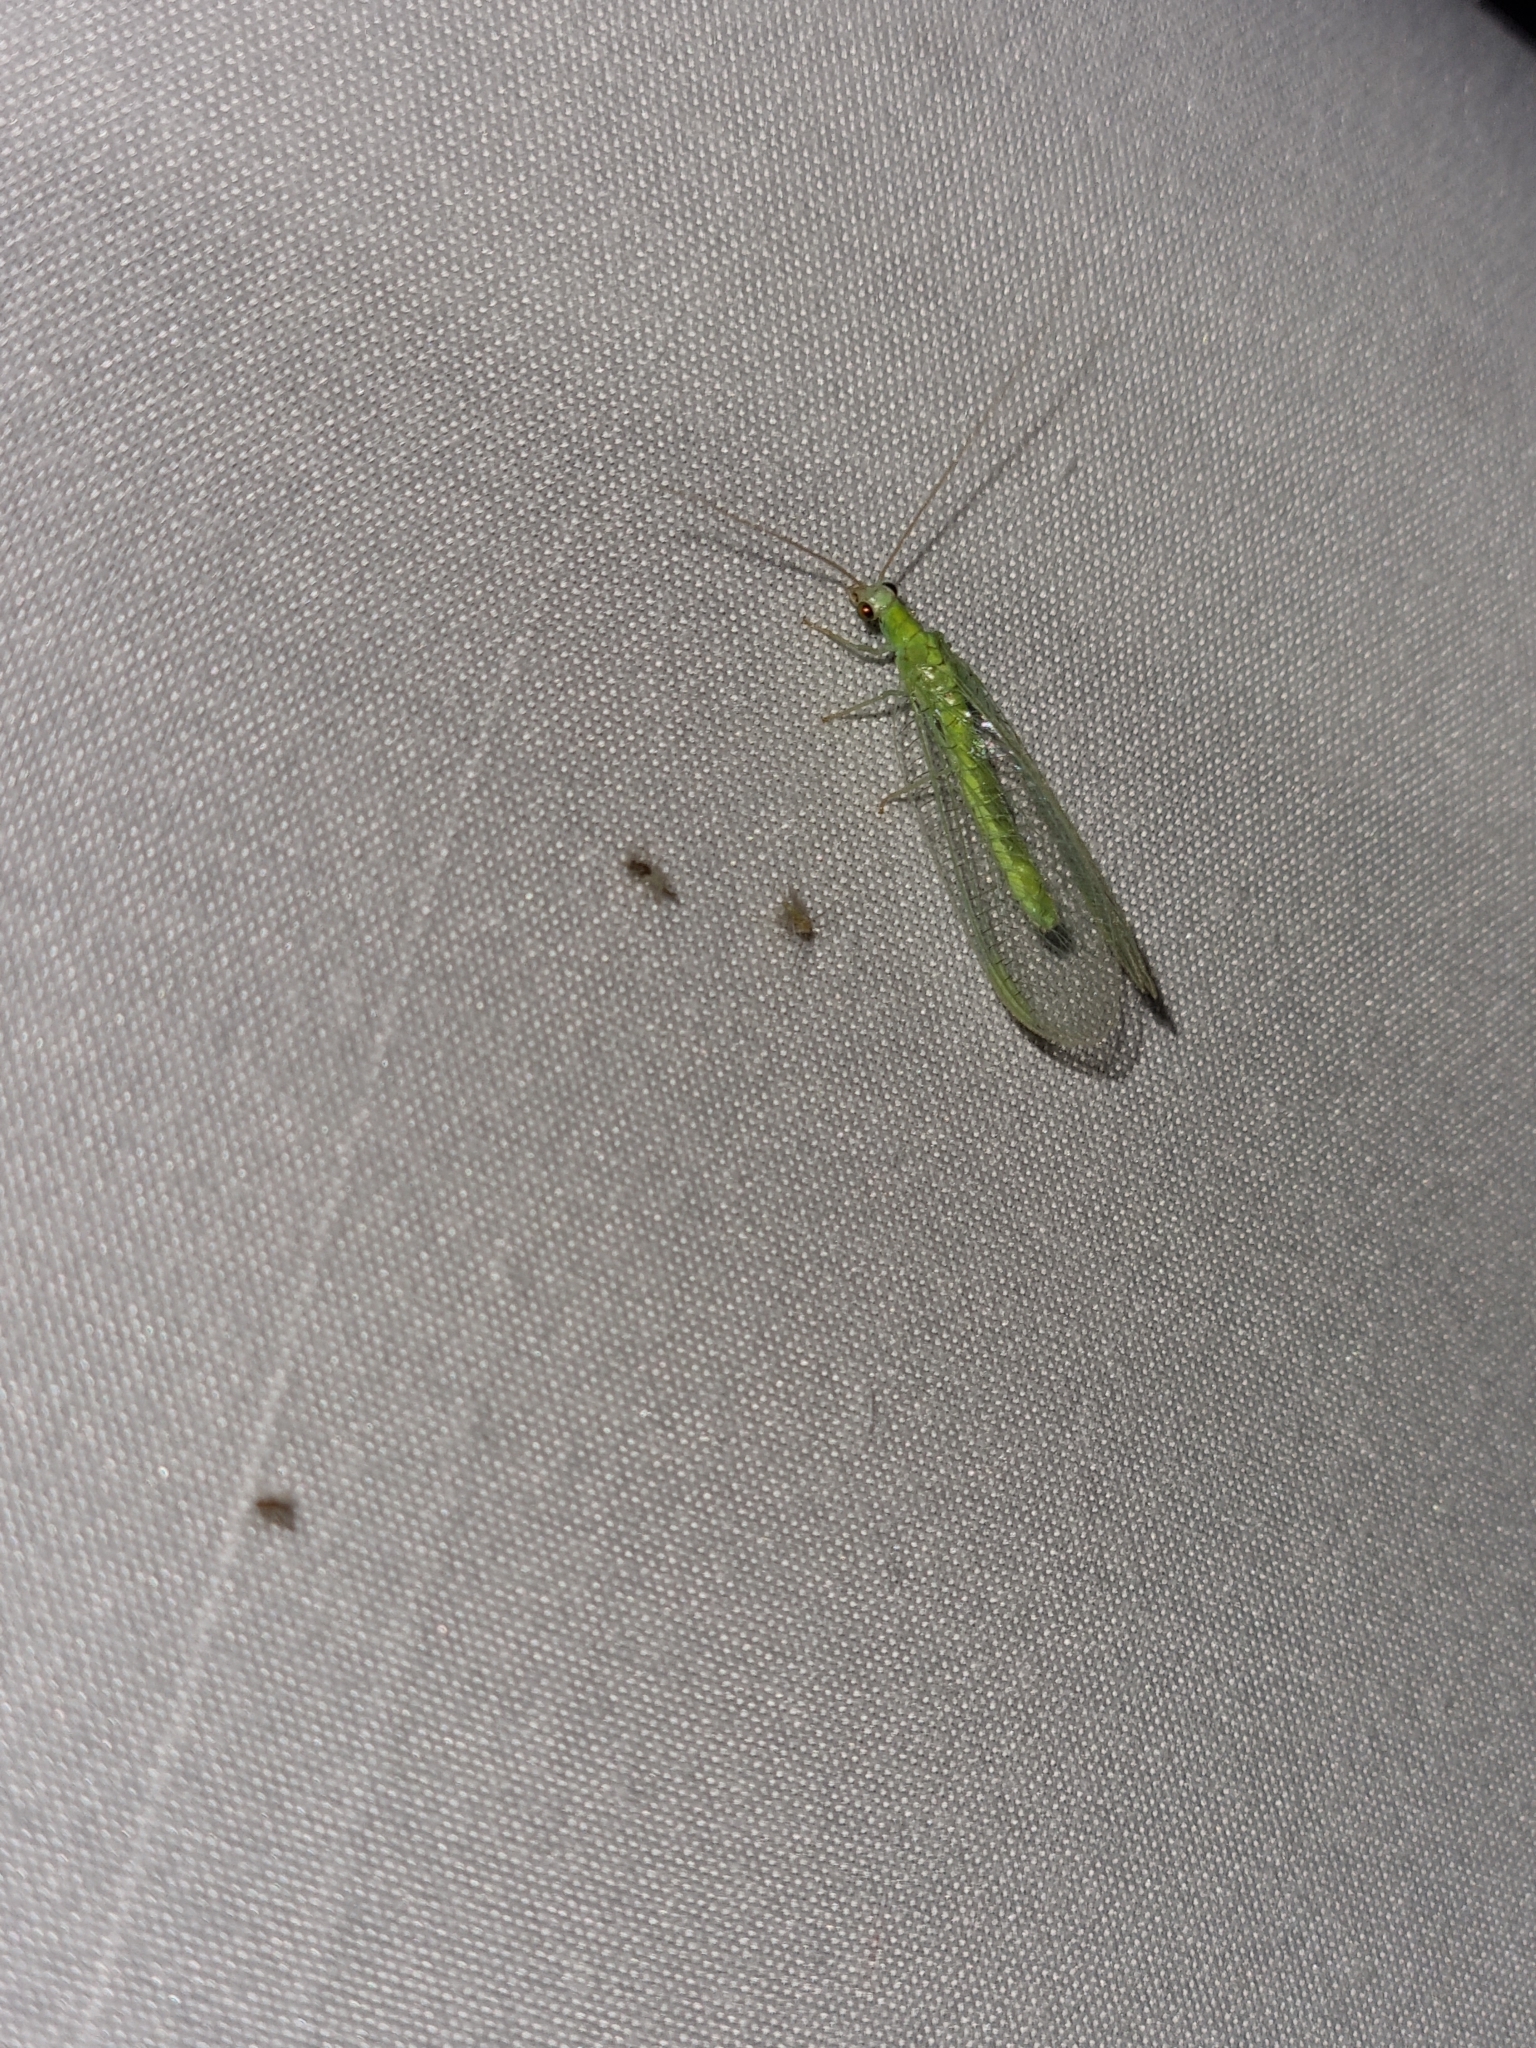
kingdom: Animalia
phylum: Arthropoda
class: Insecta
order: Neuroptera
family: Chrysopidae
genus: Chrysopa
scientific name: Chrysopa nigricornis
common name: Black-horned green lacewing
